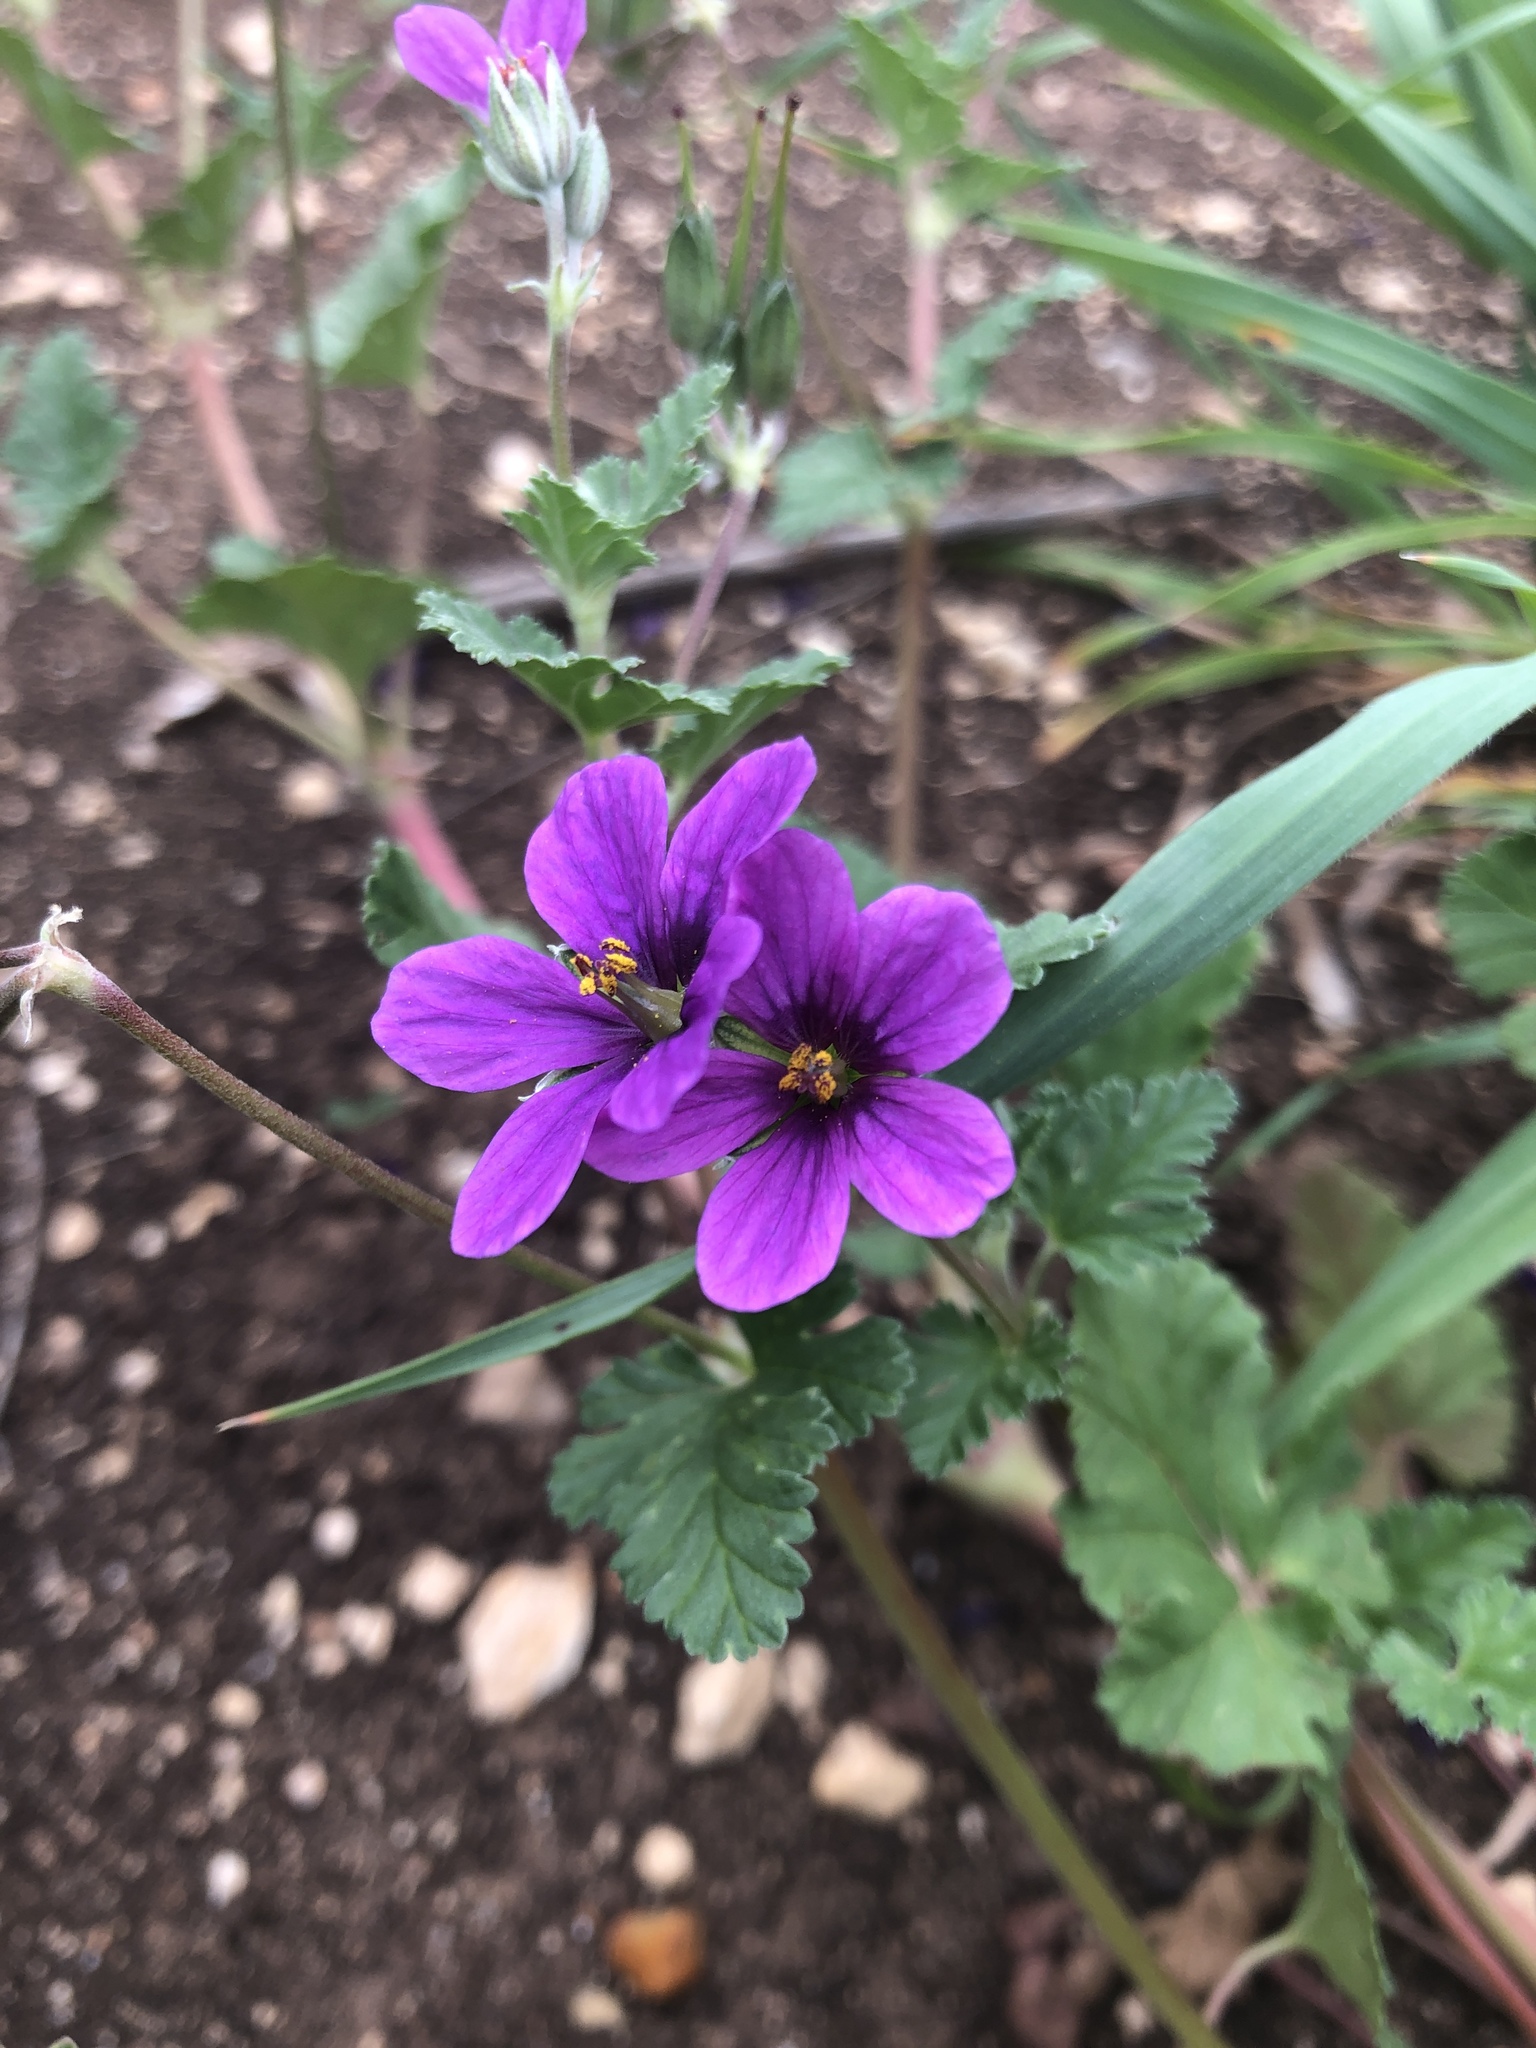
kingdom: Plantae
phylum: Tracheophyta
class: Magnoliopsida
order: Geraniales
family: Geraniaceae
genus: Erodium
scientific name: Erodium texanum
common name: Texas stork's-bill
